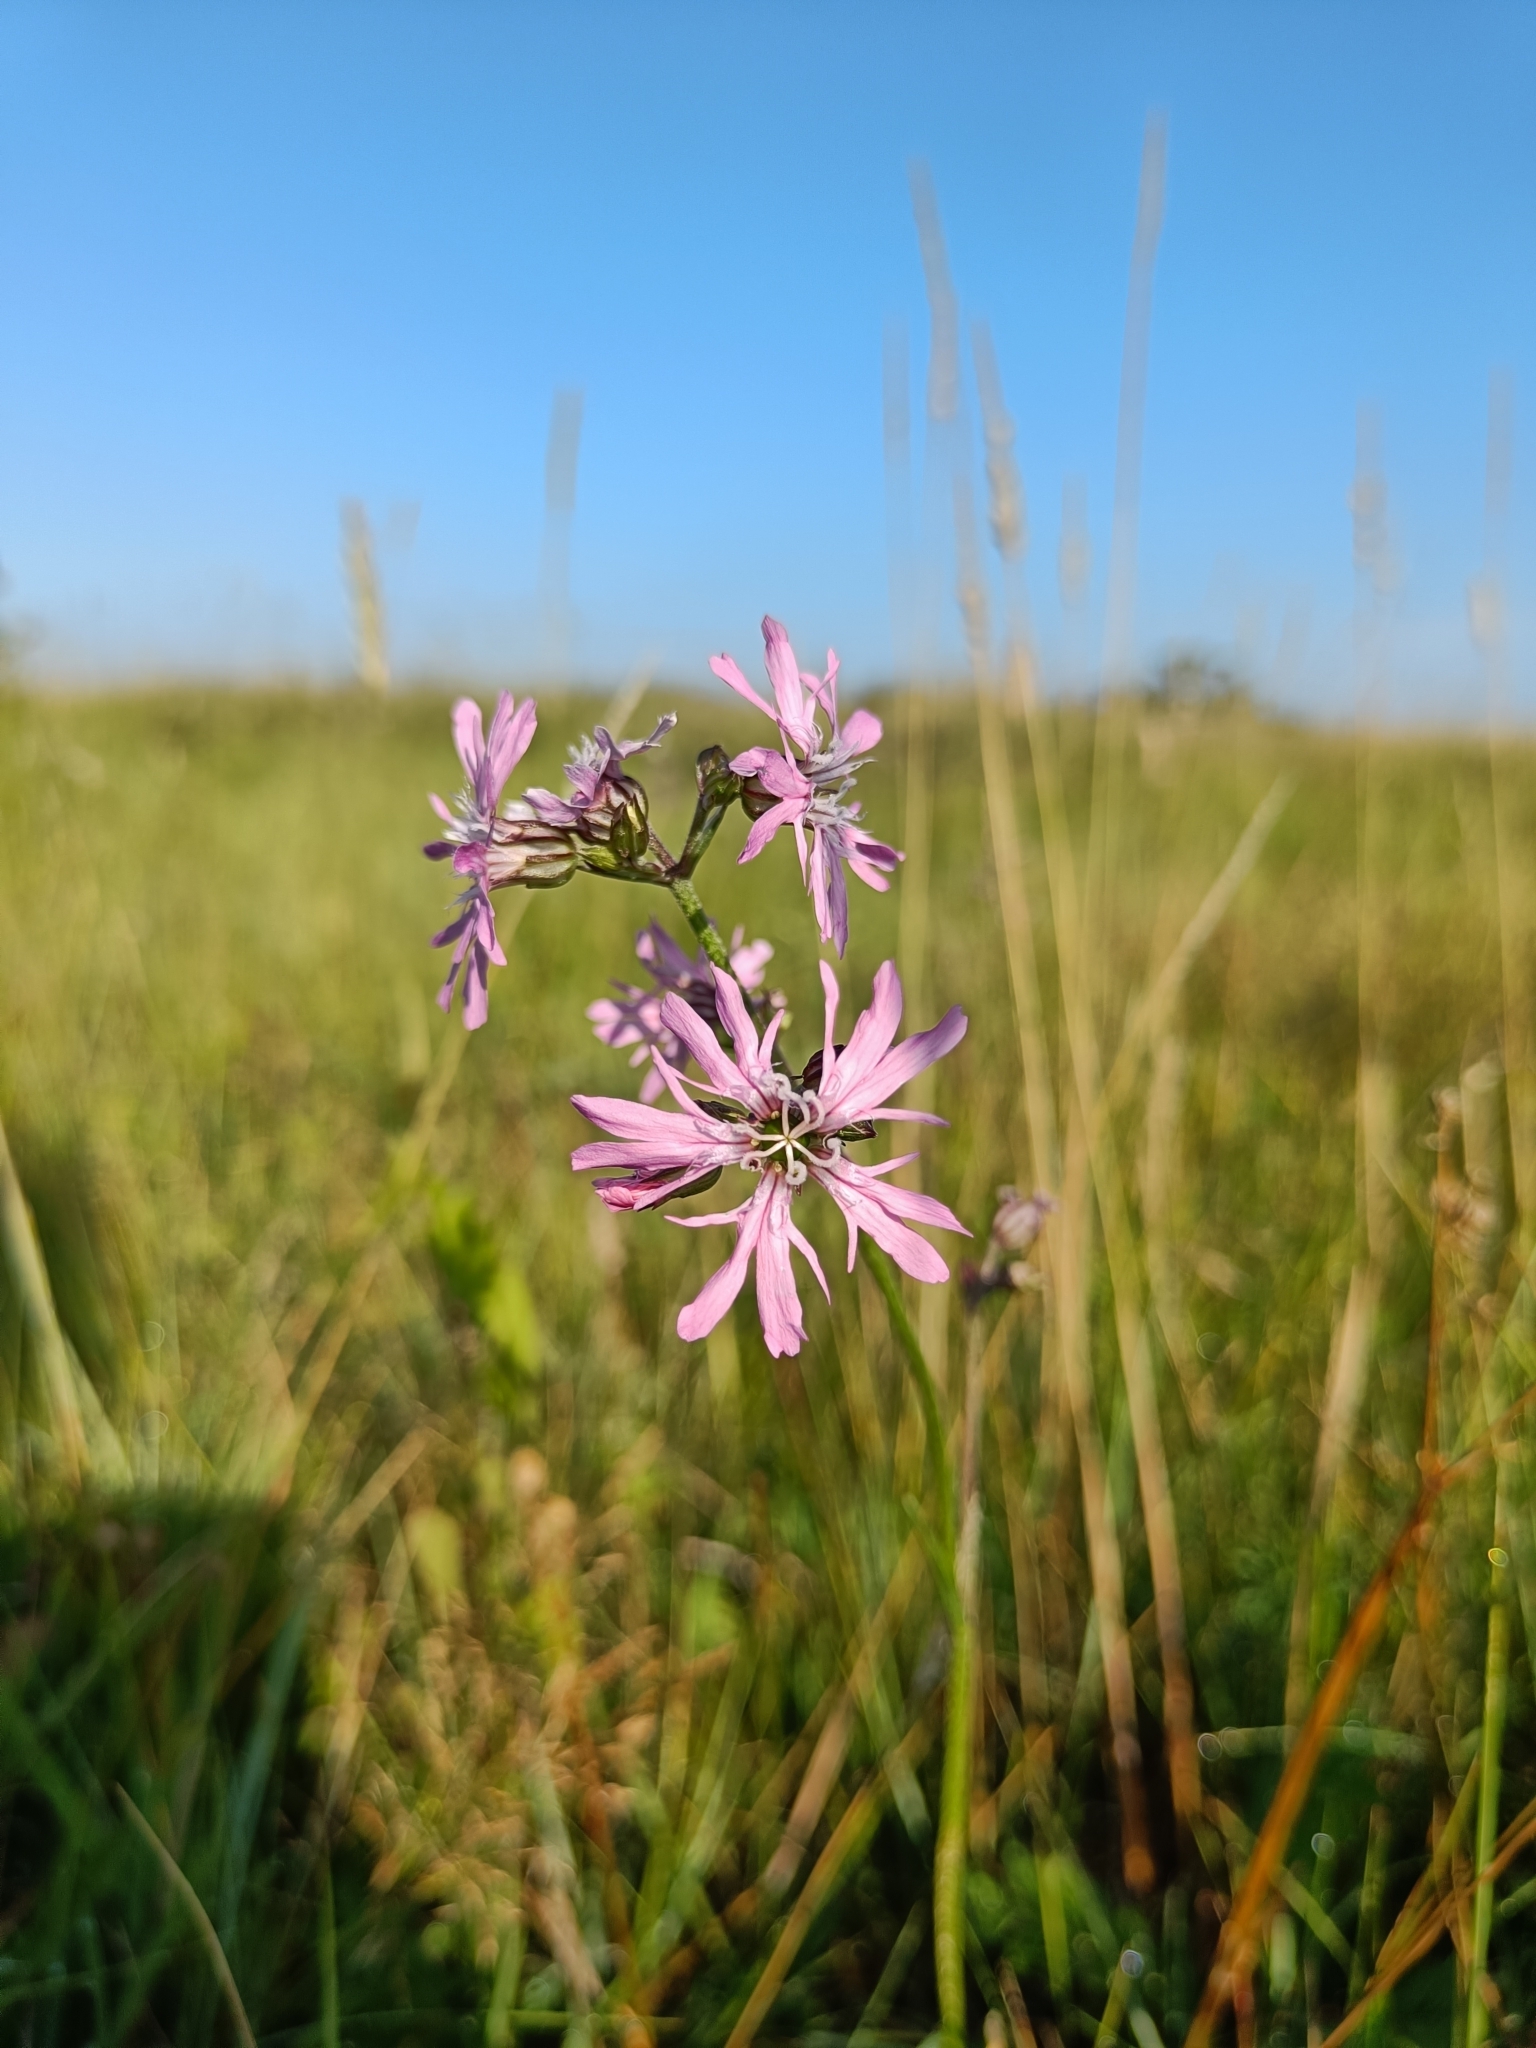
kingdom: Plantae
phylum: Tracheophyta
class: Magnoliopsida
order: Caryophyllales
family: Caryophyllaceae
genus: Silene
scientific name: Silene flos-cuculi
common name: Ragged-robin
